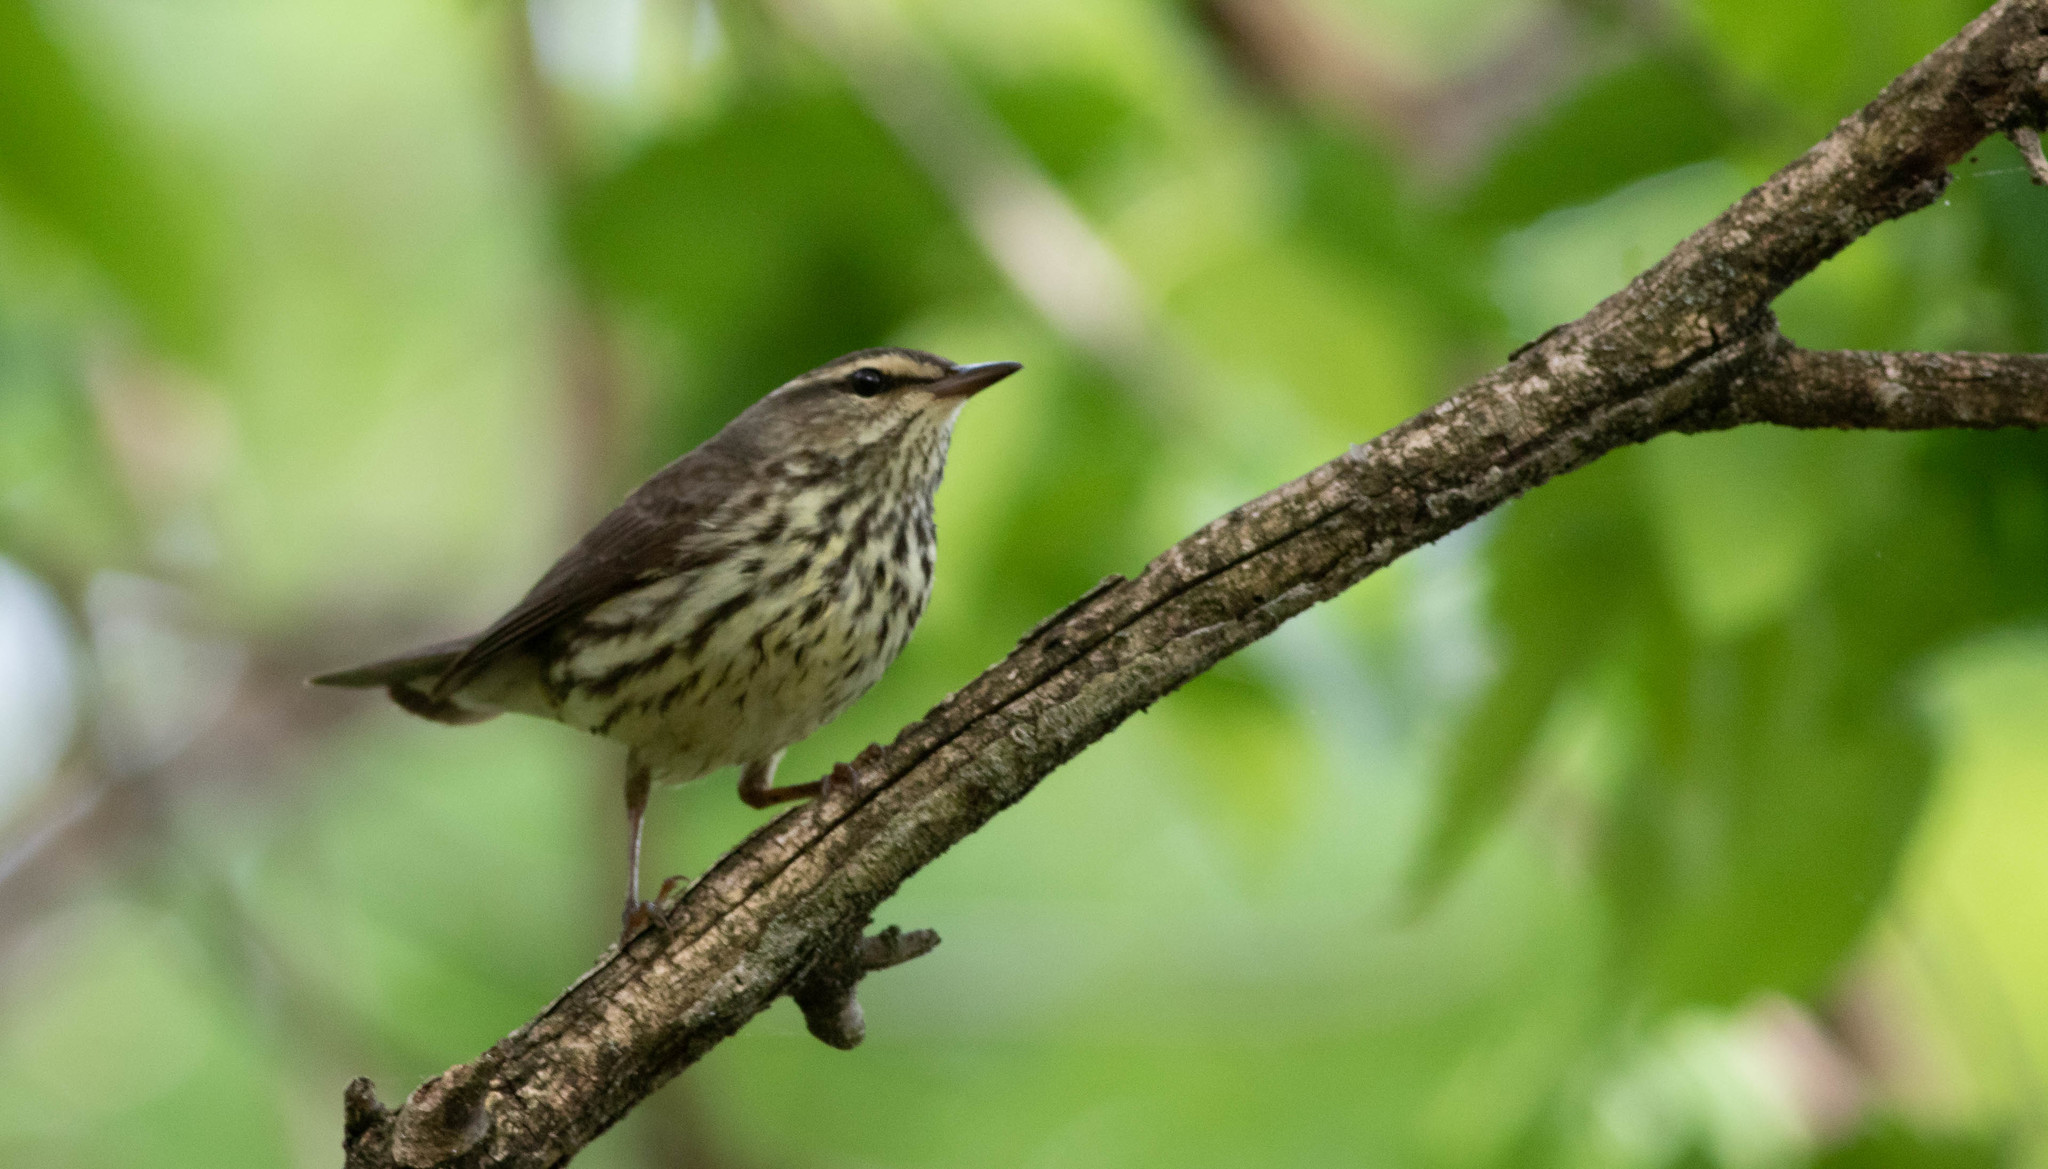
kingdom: Animalia
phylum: Chordata
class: Aves
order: Passeriformes
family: Parulidae
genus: Parkesia
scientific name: Parkesia noveboracensis
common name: Northern waterthrush
